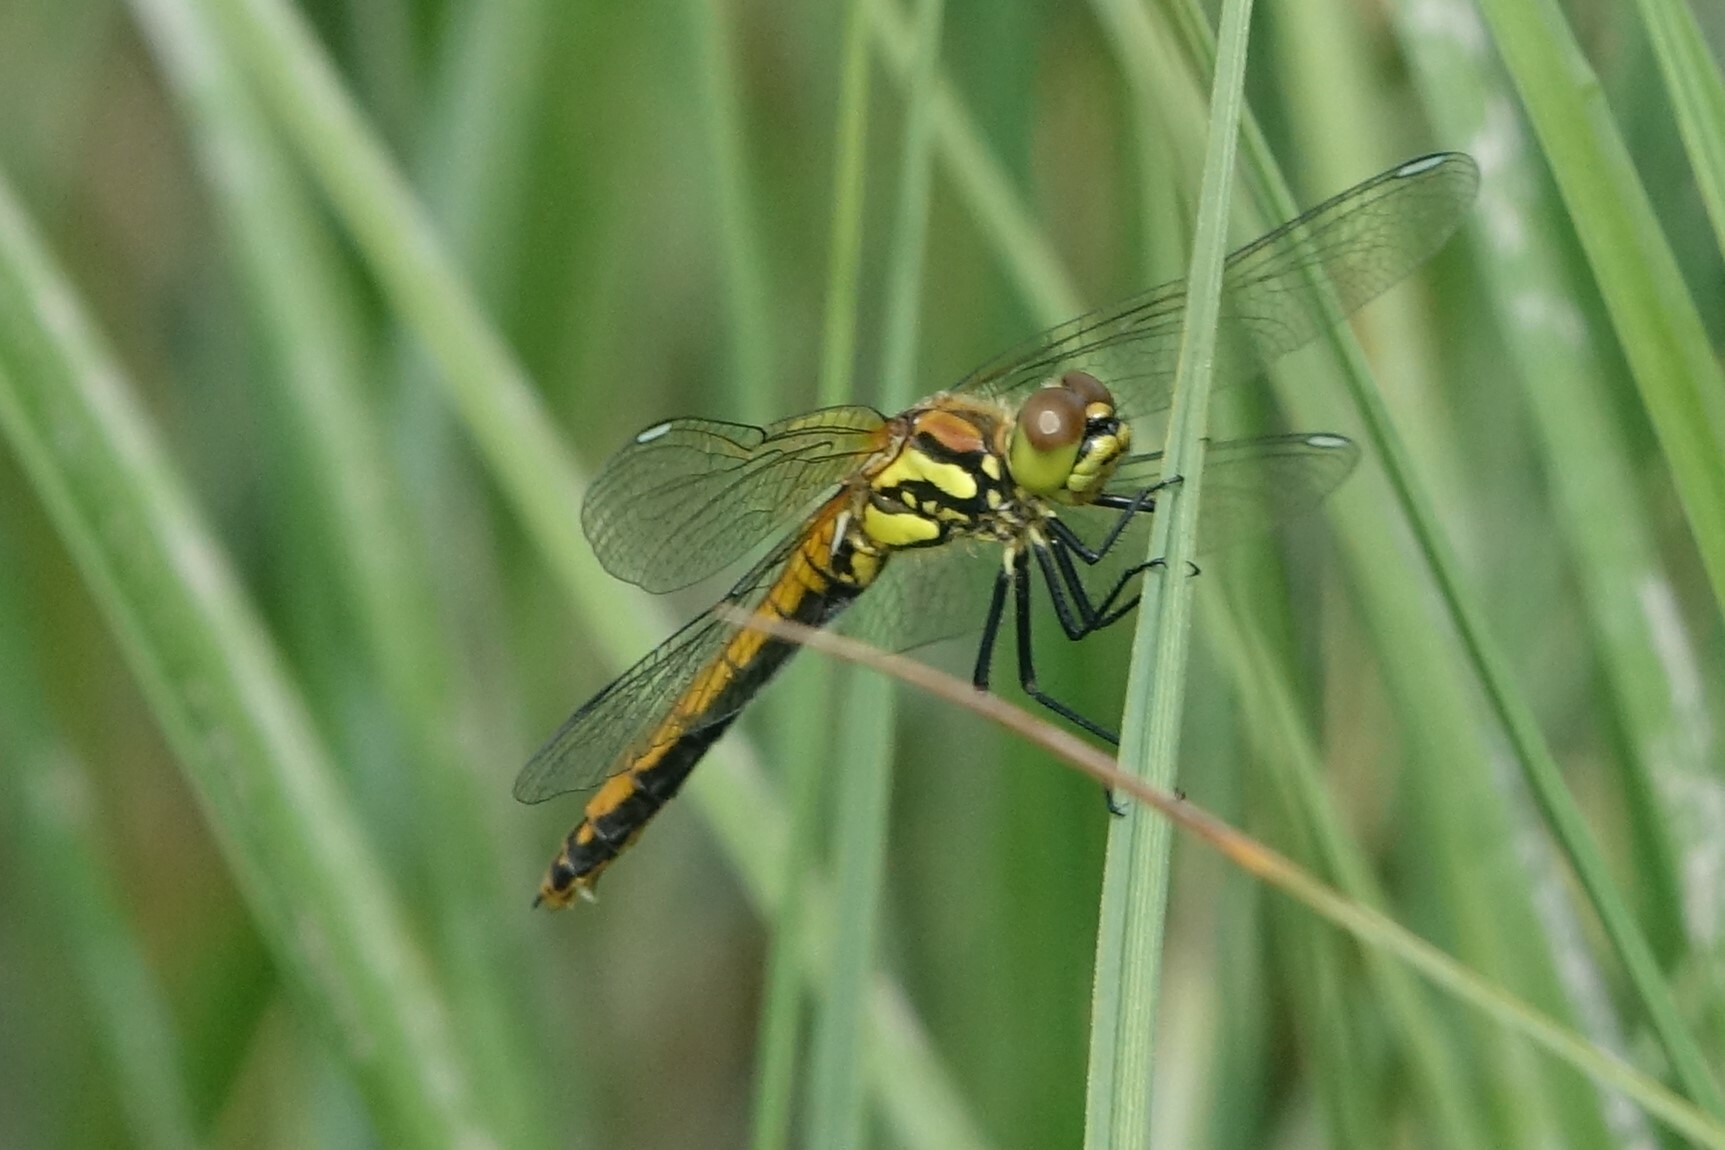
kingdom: Animalia
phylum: Arthropoda
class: Insecta
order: Odonata
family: Libellulidae
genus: Sympetrum
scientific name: Sympetrum danae
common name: Black darter
